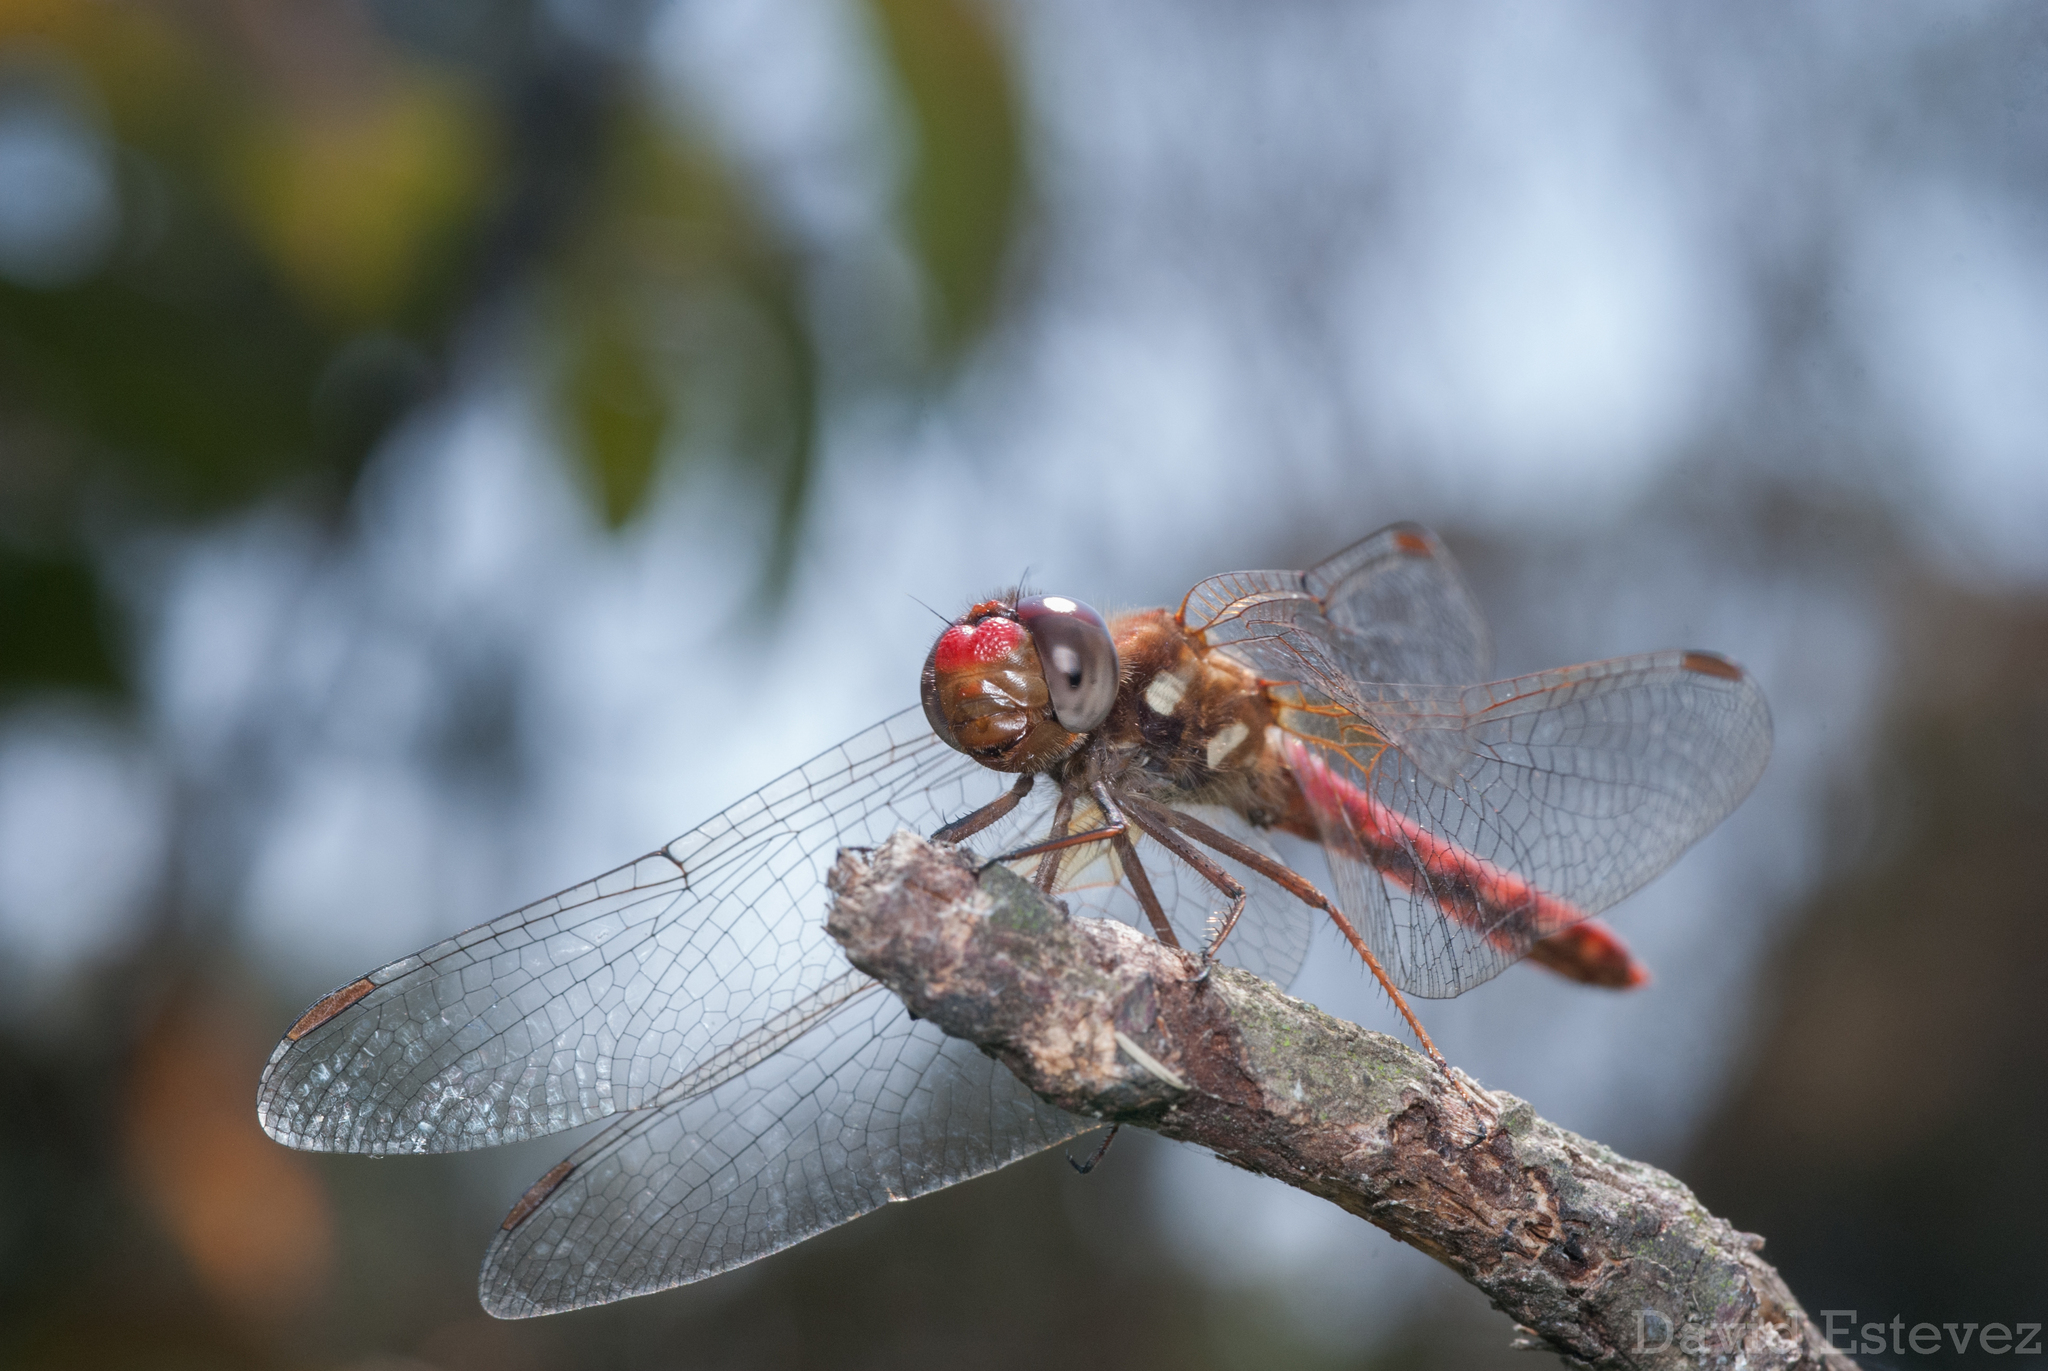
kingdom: Animalia
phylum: Arthropoda
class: Insecta
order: Odonata
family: Libellulidae
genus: Sympetrum
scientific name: Sympetrum gilvum
